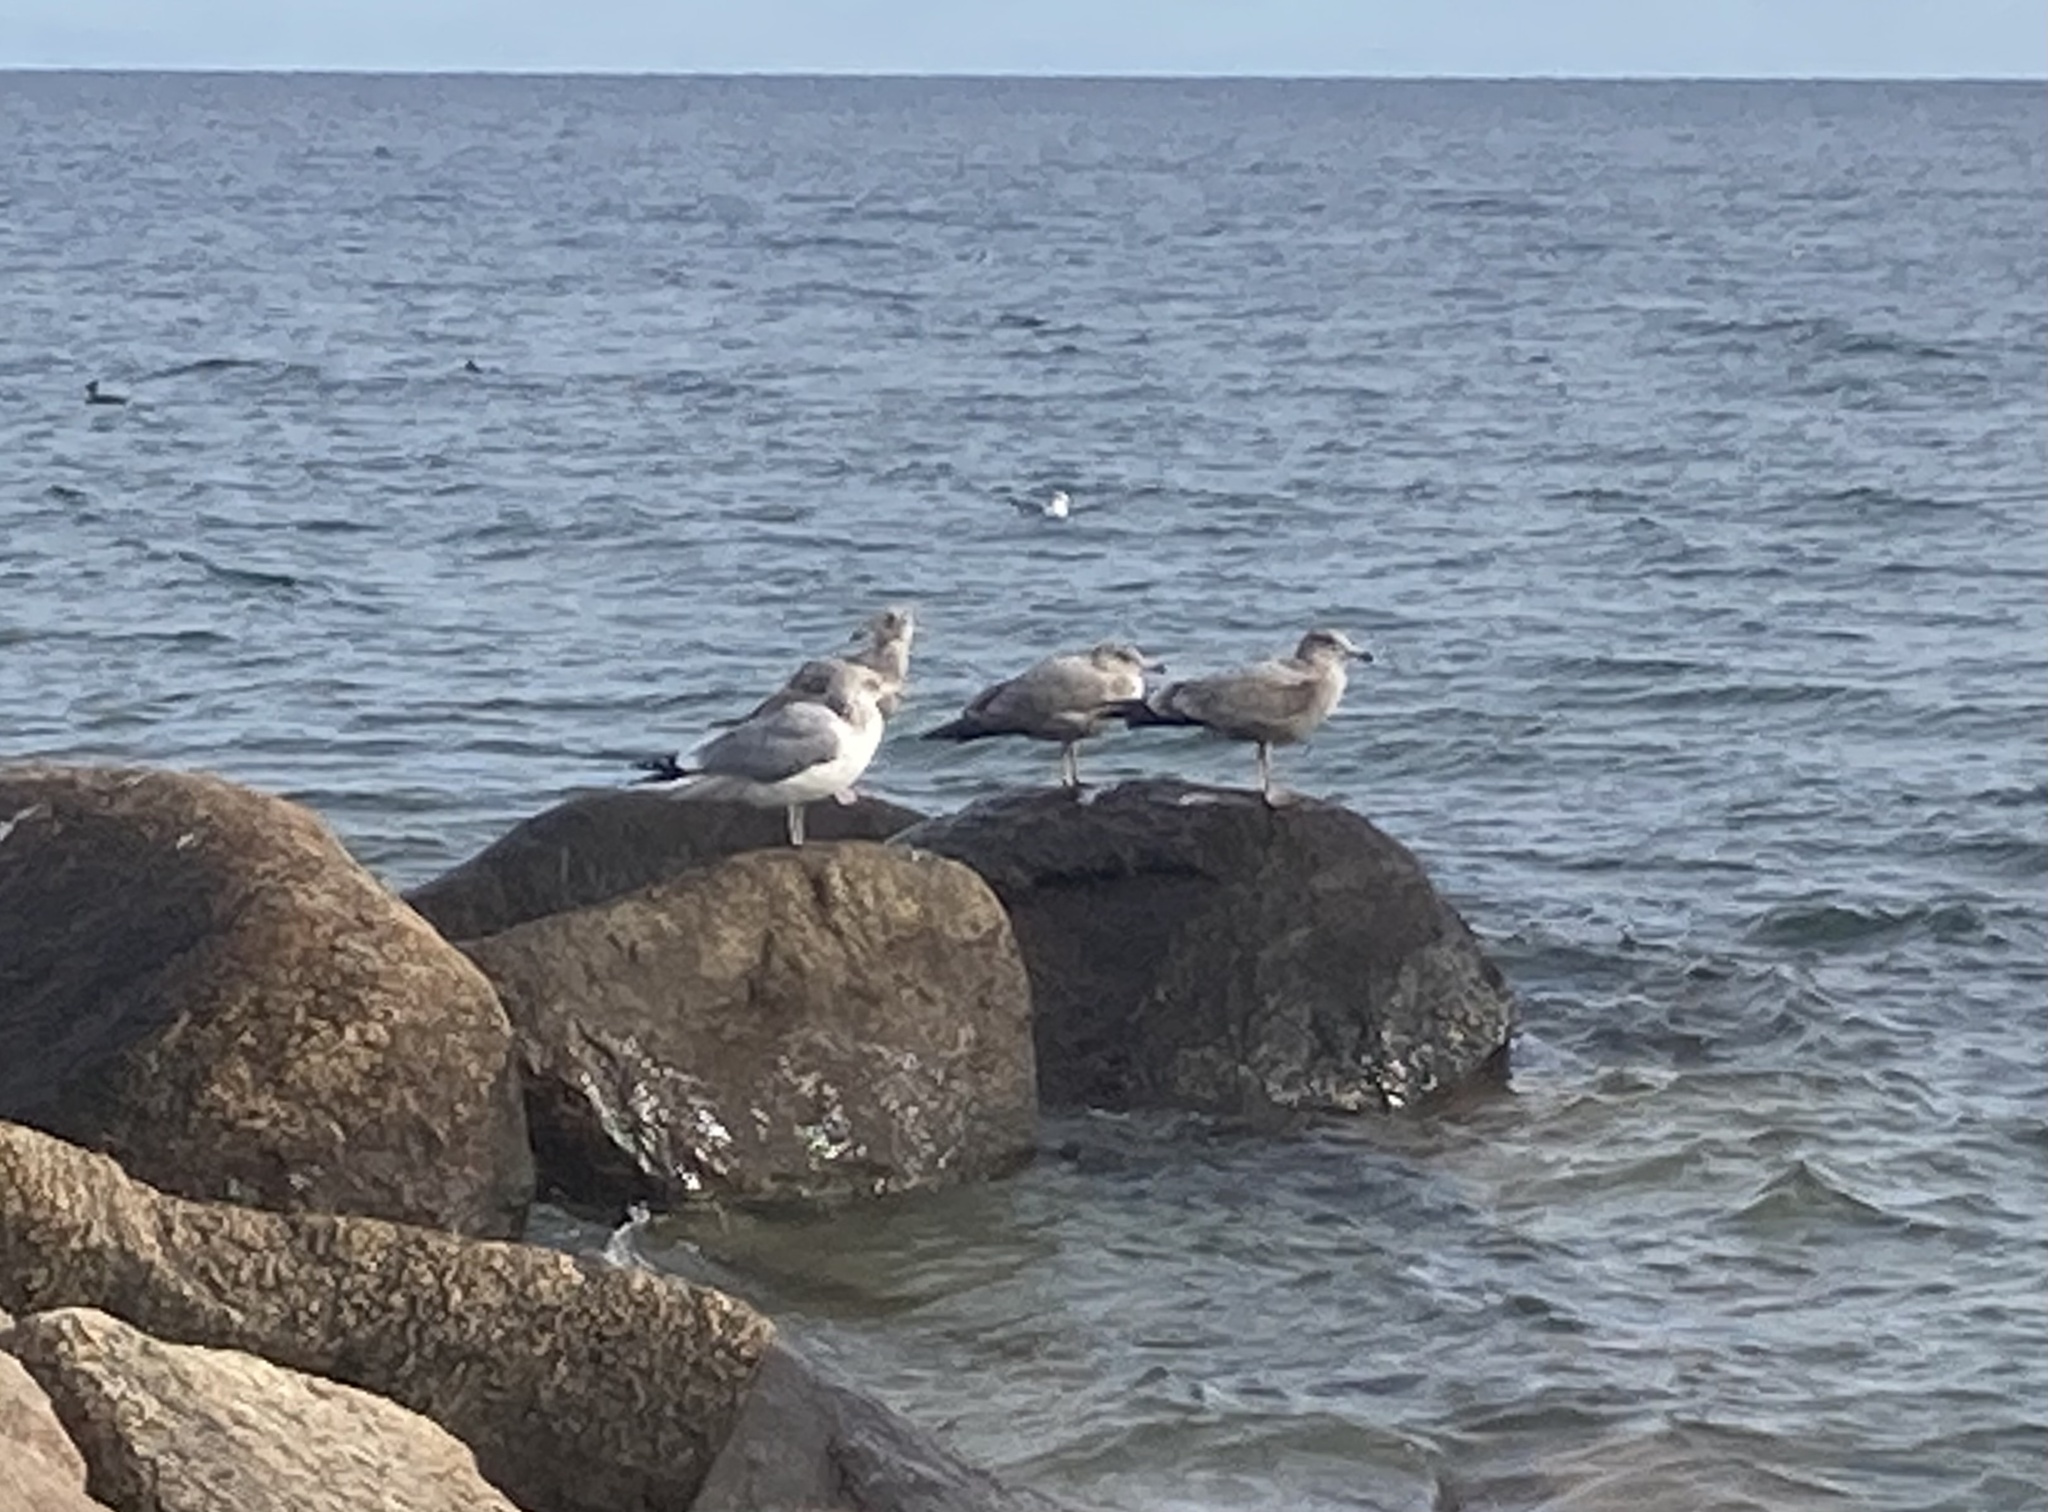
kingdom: Animalia
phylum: Chordata
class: Aves
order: Charadriiformes
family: Laridae
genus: Larus
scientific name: Larus smithsonianus
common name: American herring gull
